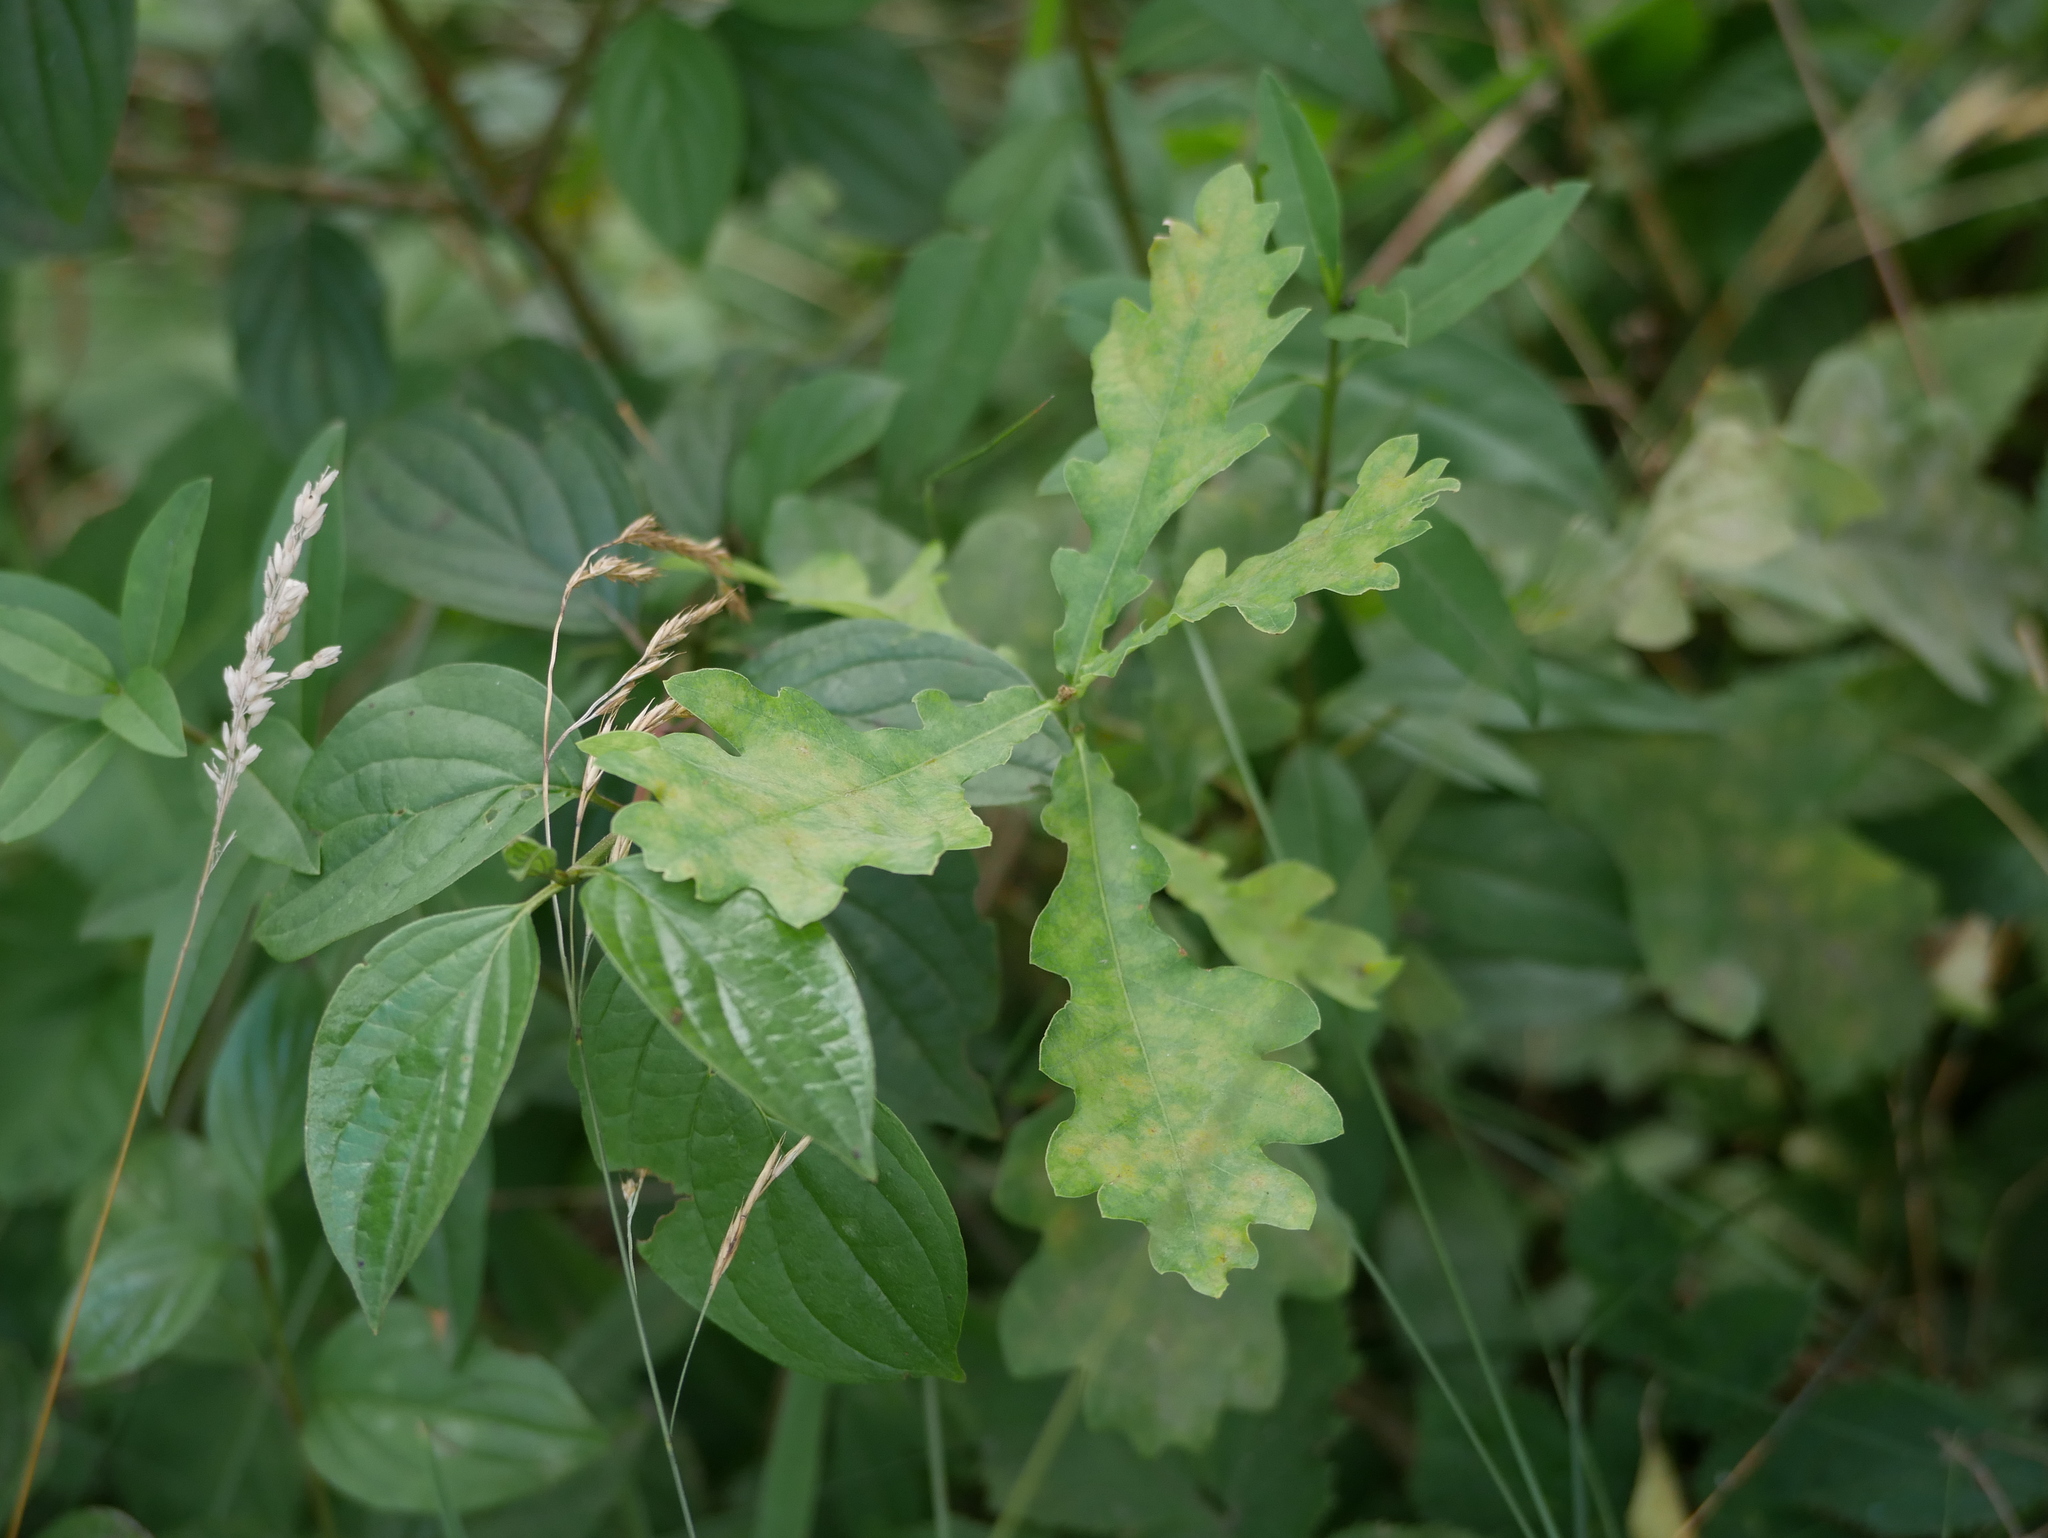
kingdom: Plantae
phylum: Tracheophyta
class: Magnoliopsida
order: Fagales
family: Fagaceae
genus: Quercus
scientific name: Quercus robur
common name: Pedunculate oak
